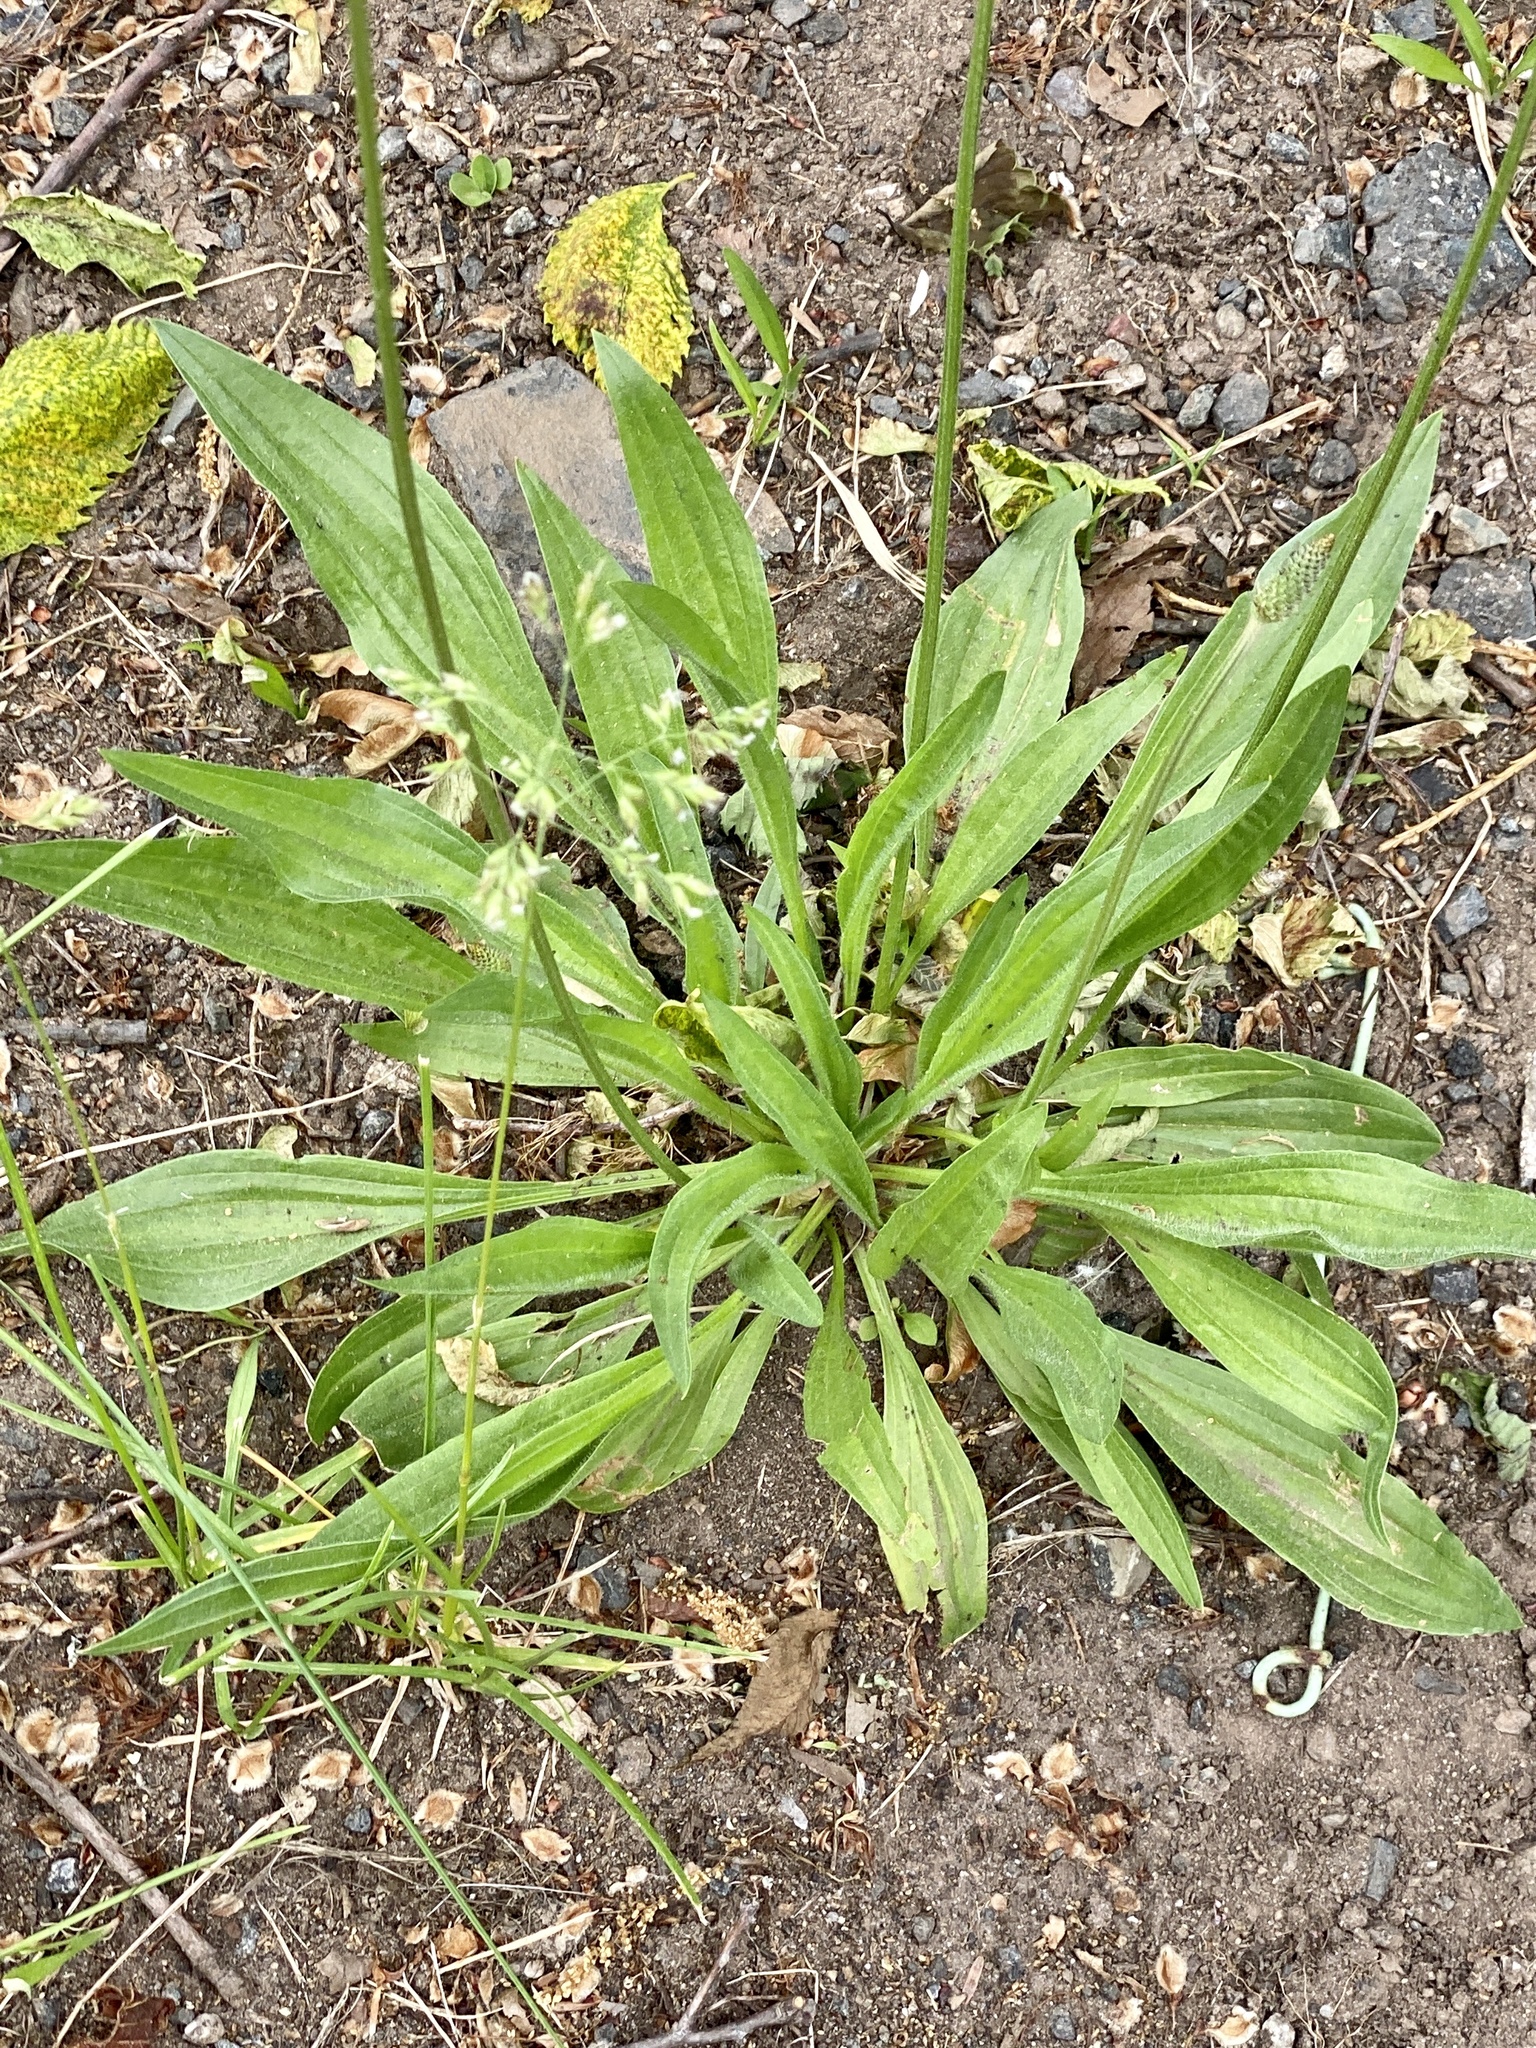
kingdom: Plantae
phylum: Tracheophyta
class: Magnoliopsida
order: Lamiales
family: Plantaginaceae
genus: Plantago
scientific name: Plantago lanceolata
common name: Ribwort plantain
